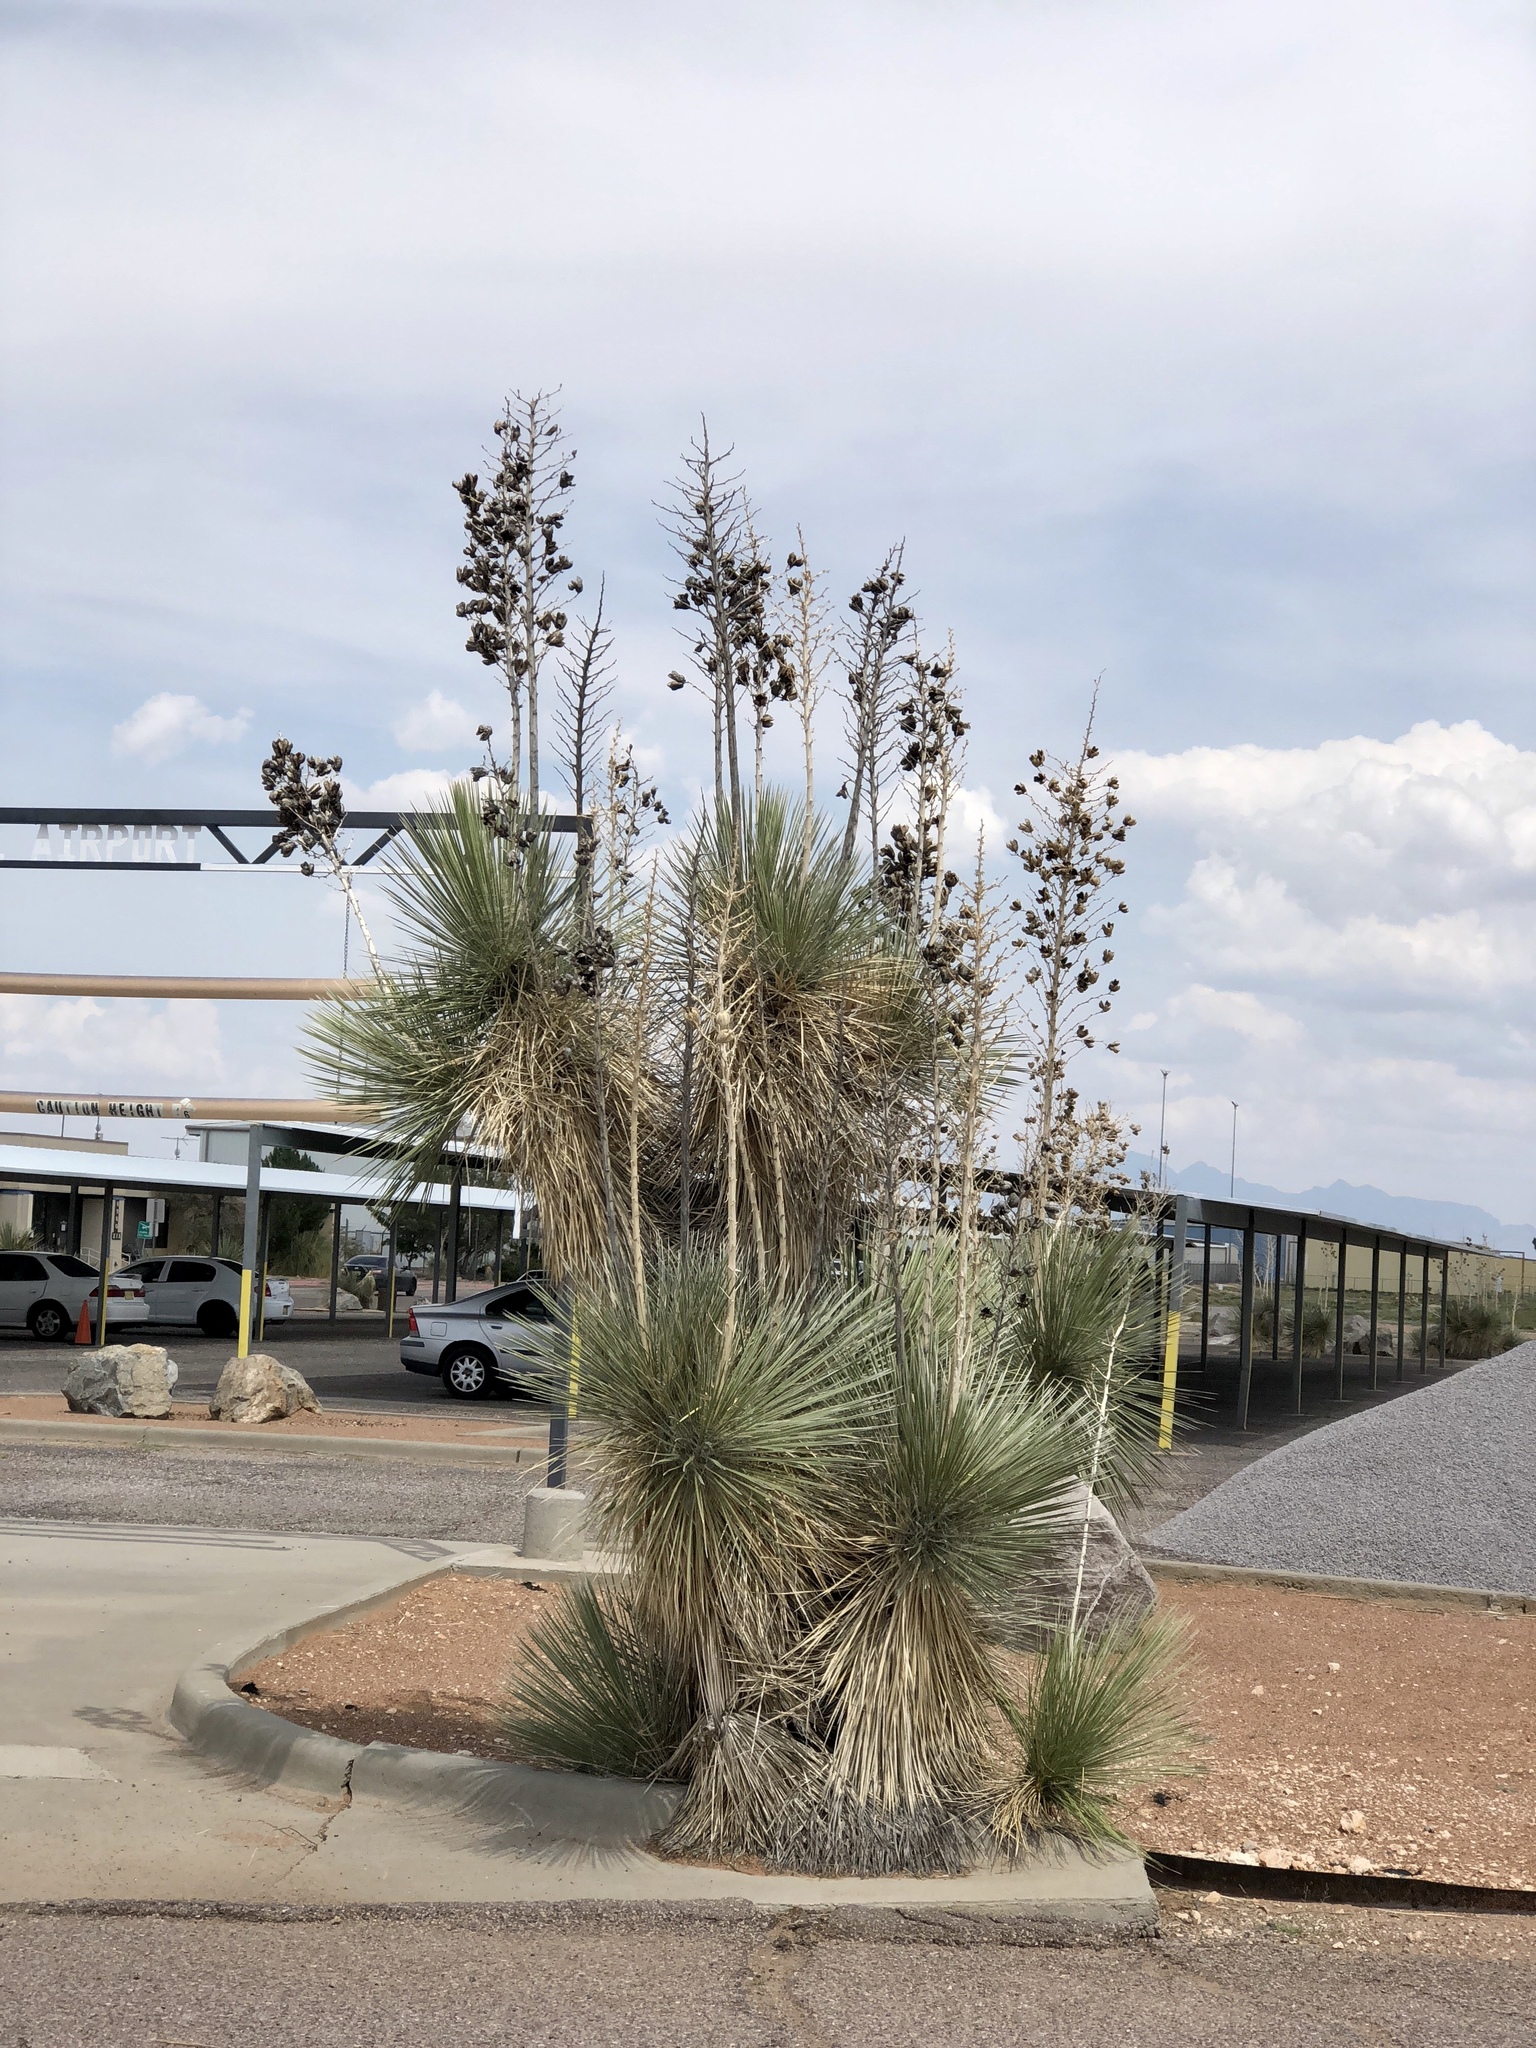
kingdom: Plantae
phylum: Tracheophyta
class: Liliopsida
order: Asparagales
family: Asparagaceae
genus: Yucca
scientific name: Yucca elata
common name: Palmella
